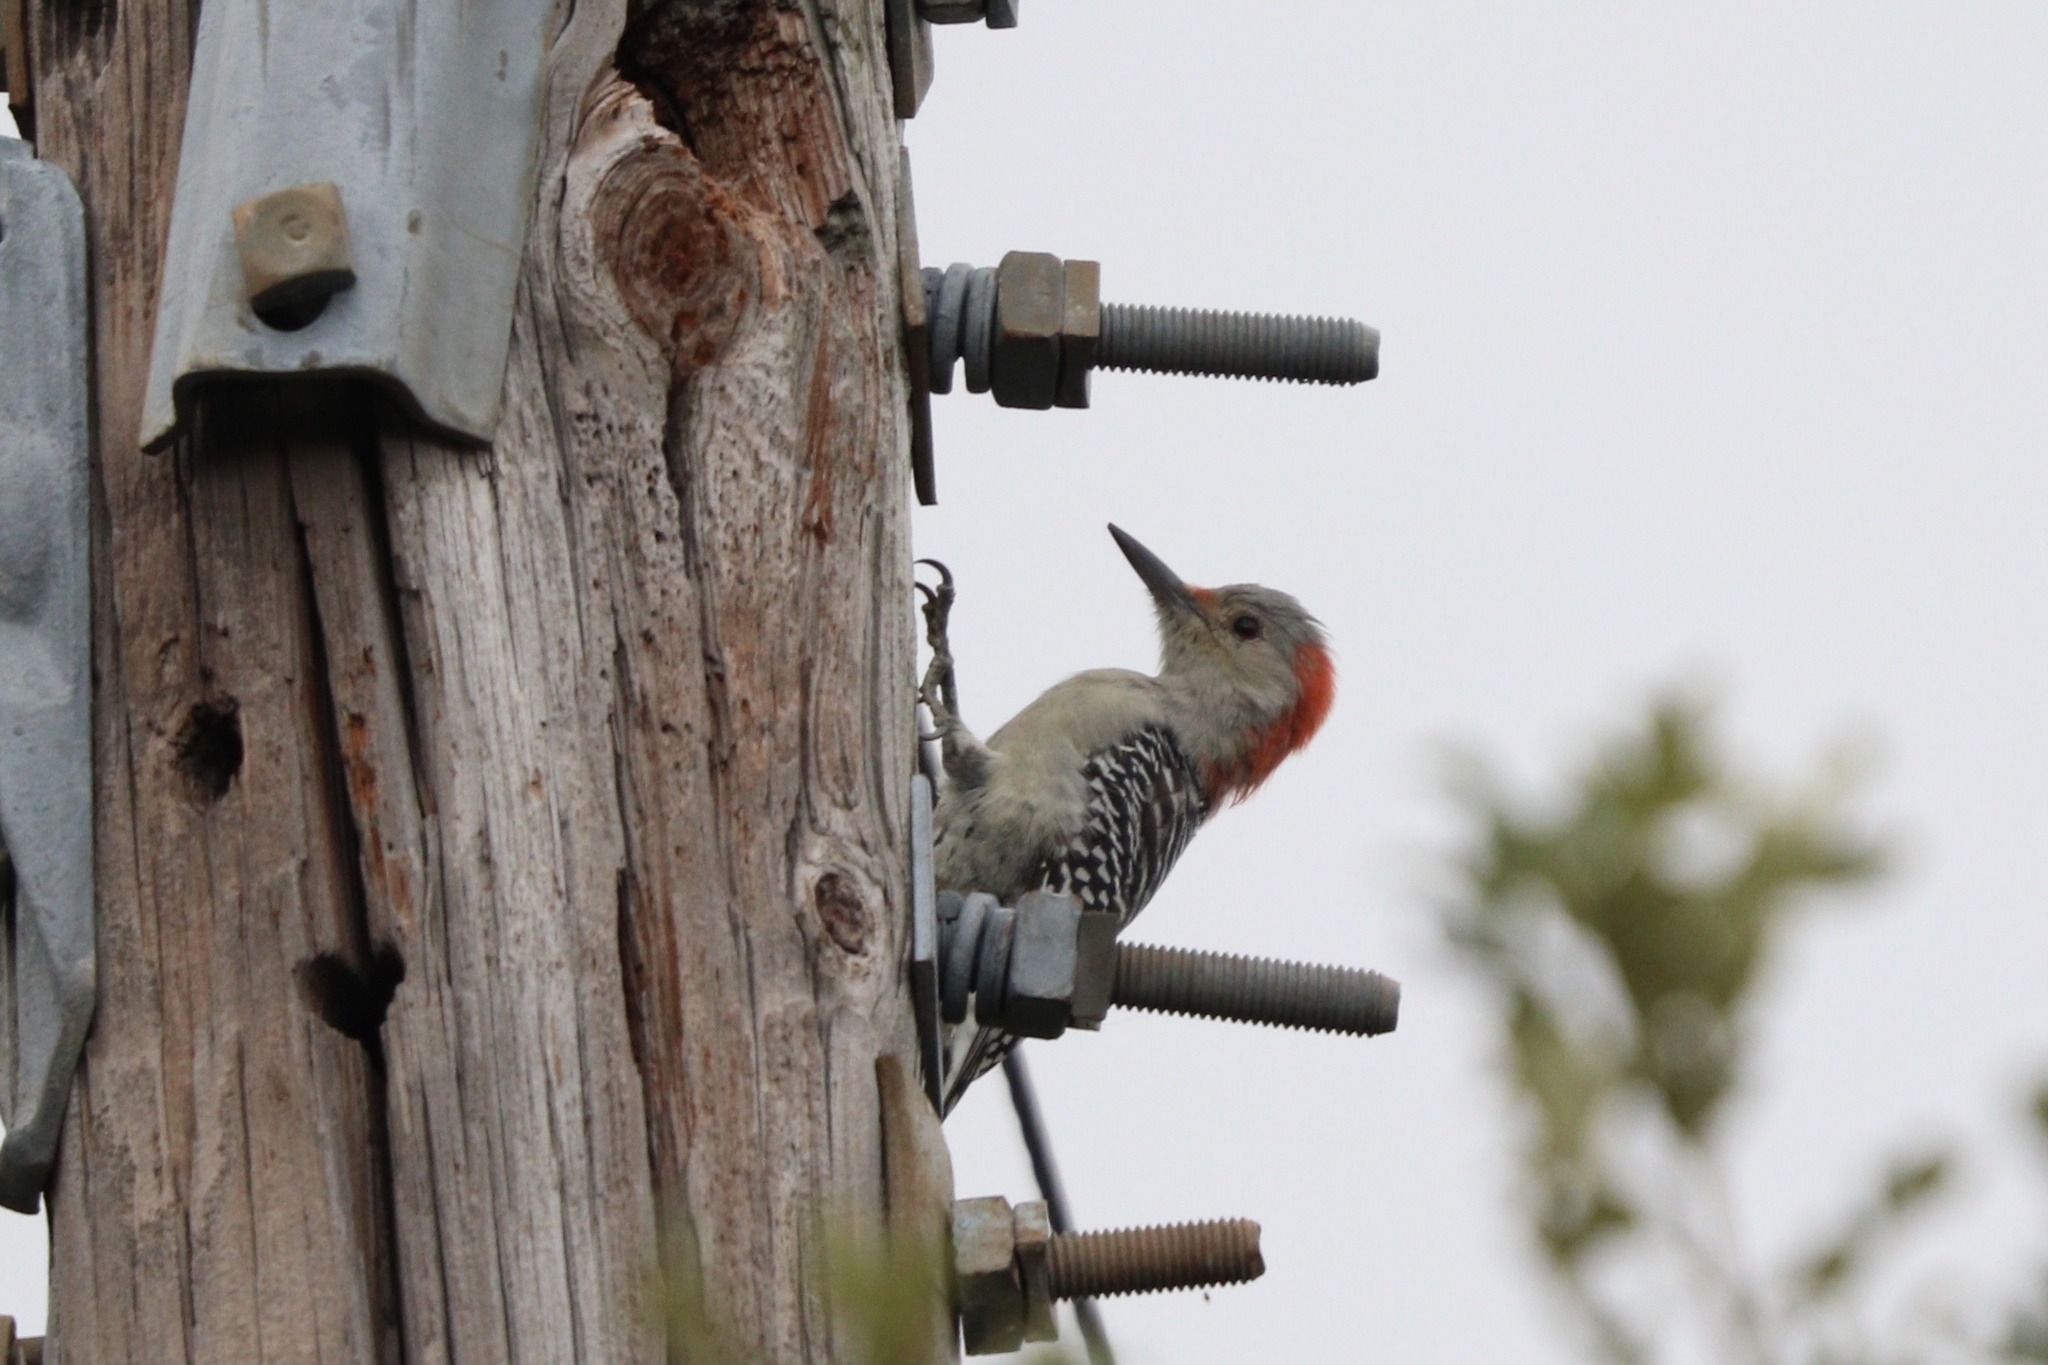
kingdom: Animalia
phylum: Chordata
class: Aves
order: Piciformes
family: Picidae
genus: Melanerpes
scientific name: Melanerpes carolinus
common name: Red-bellied woodpecker
